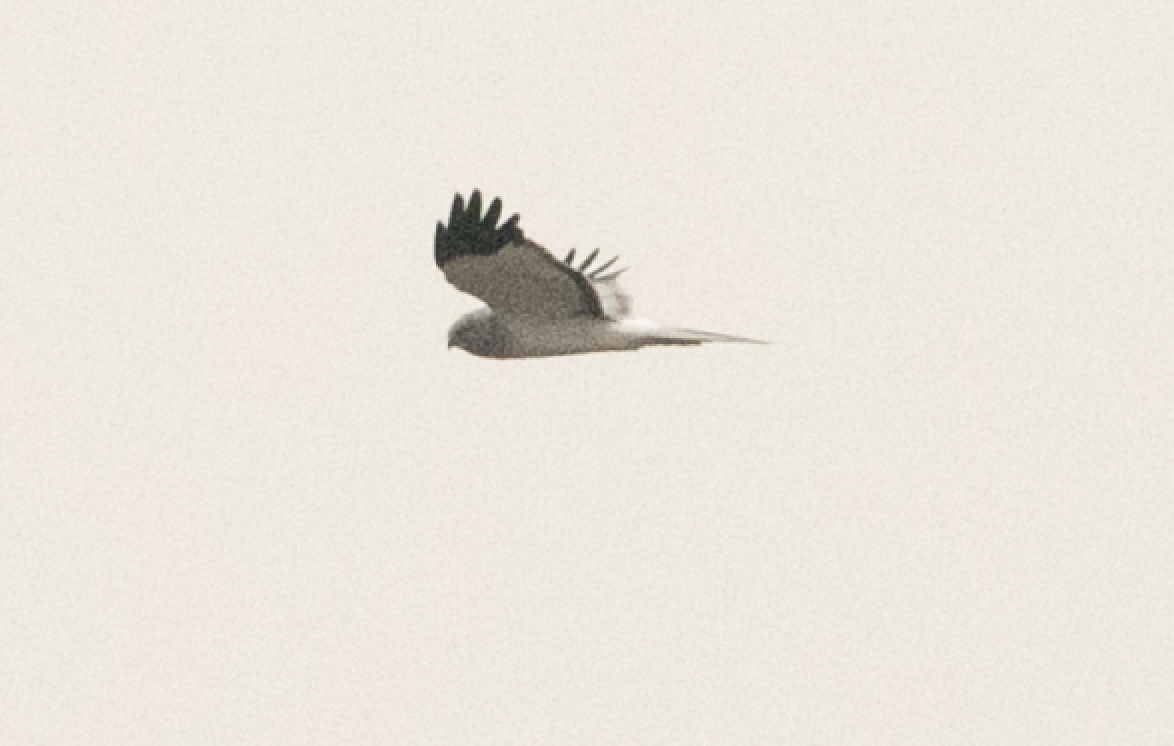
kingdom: Animalia
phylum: Chordata
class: Aves
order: Accipitriformes
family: Accipitridae
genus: Circus
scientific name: Circus cyaneus
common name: Hen harrier
